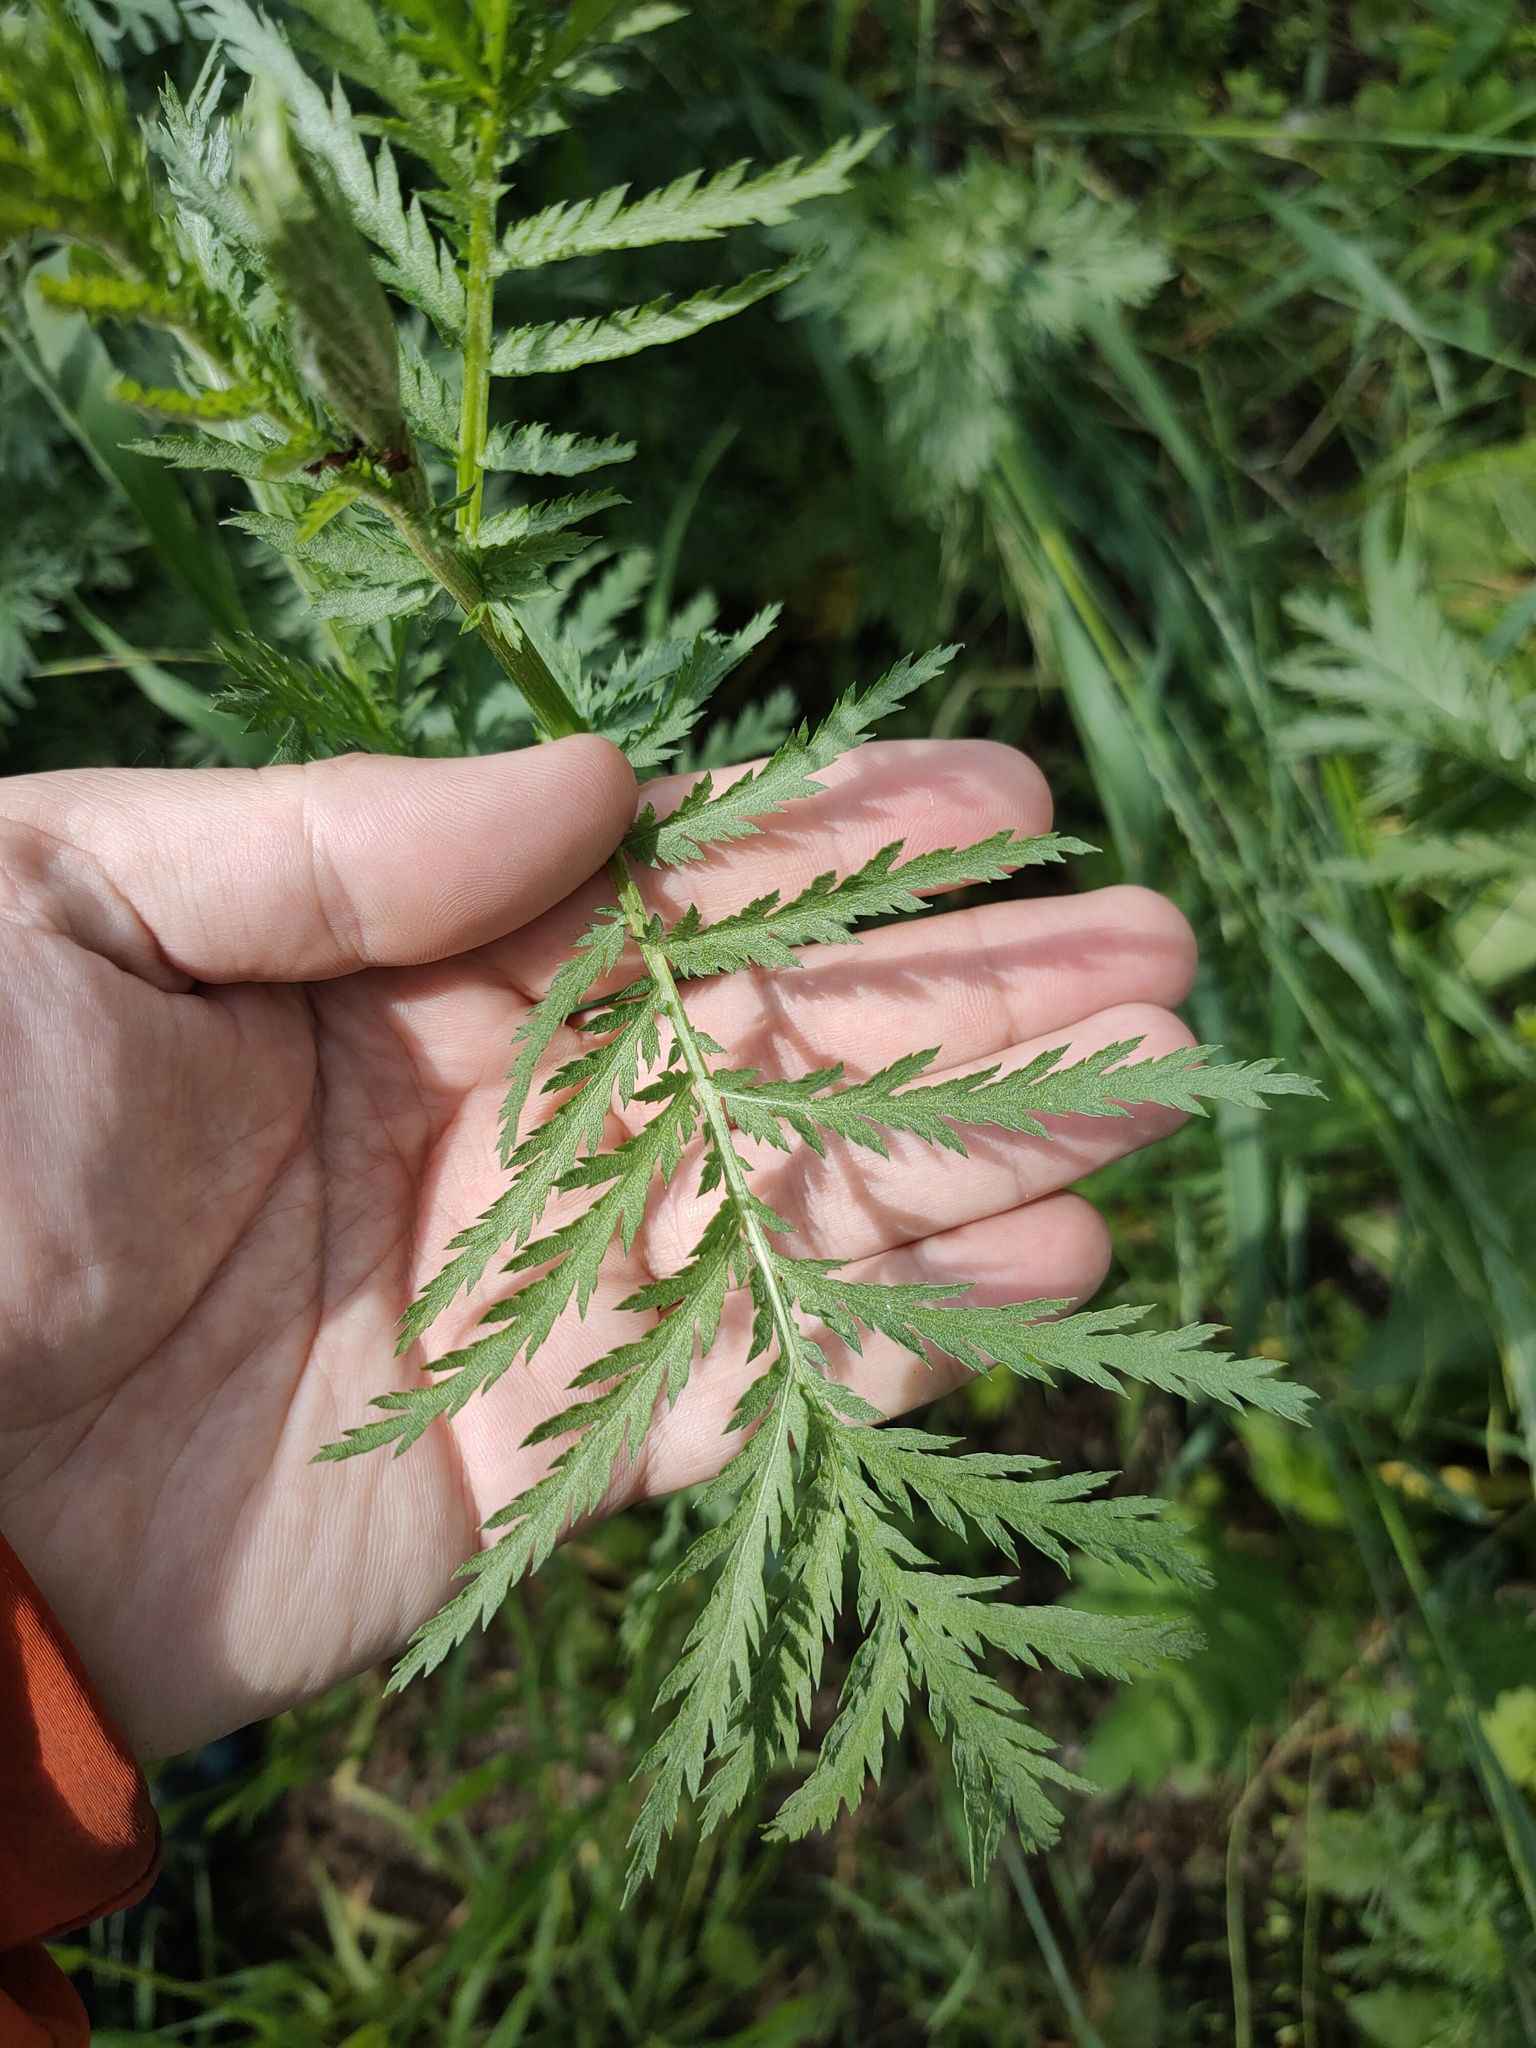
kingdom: Plantae
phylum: Tracheophyta
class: Magnoliopsida
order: Asterales
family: Asteraceae
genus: Tanacetum
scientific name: Tanacetum vulgare
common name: Common tansy
